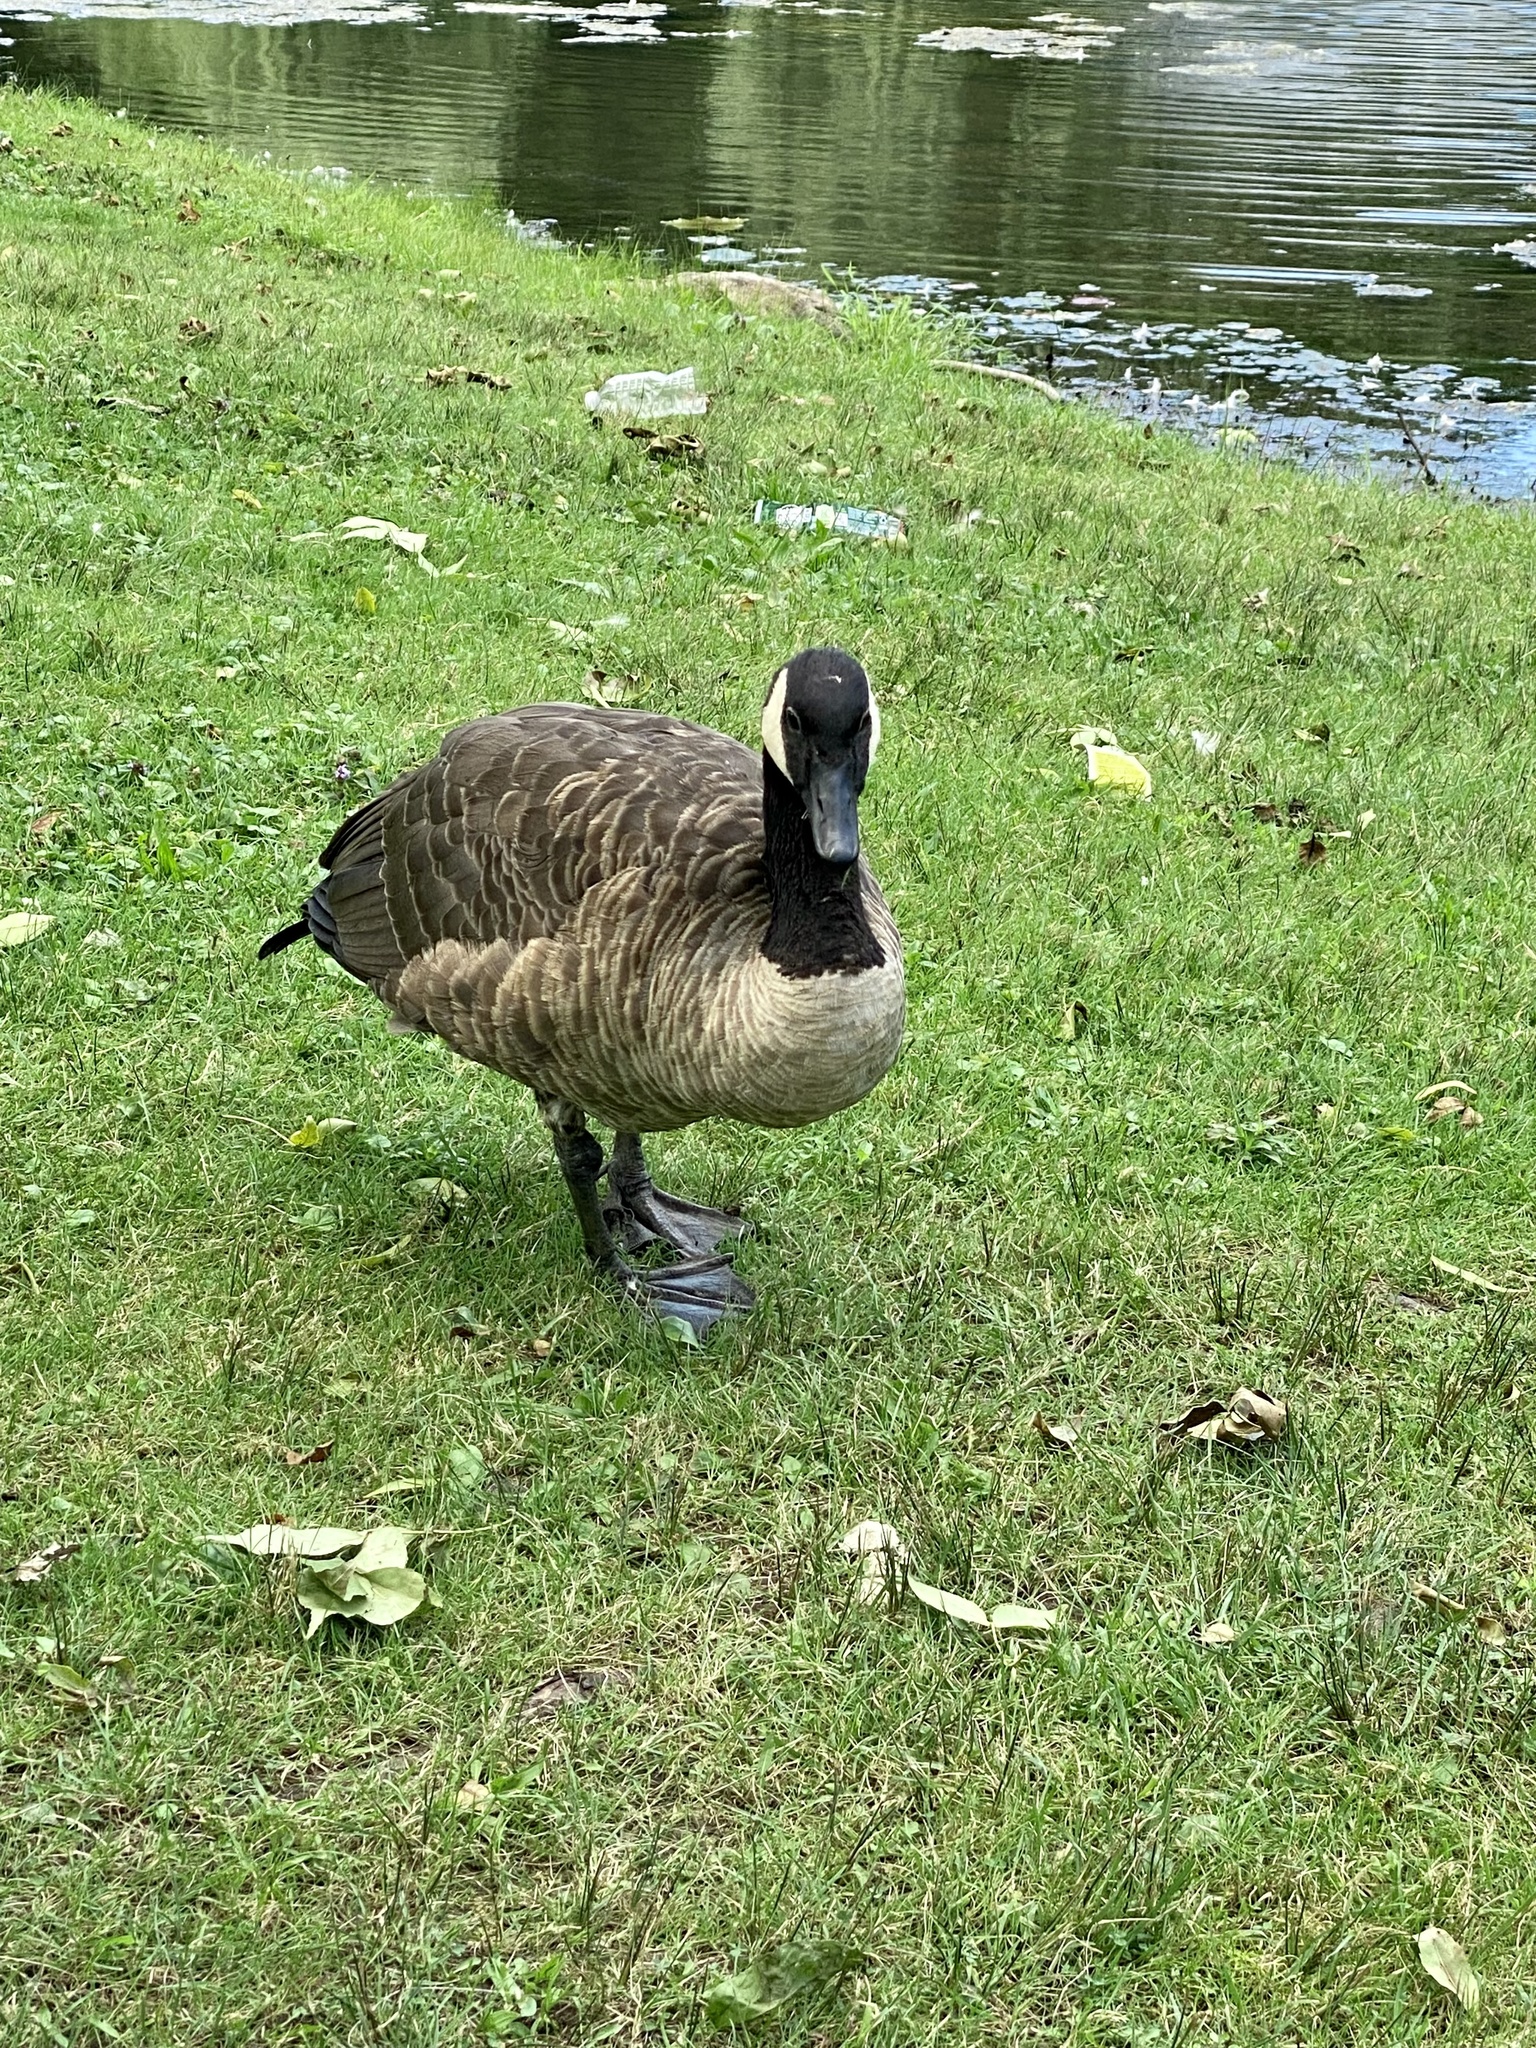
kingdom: Animalia
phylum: Chordata
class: Aves
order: Anseriformes
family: Anatidae
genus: Branta
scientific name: Branta canadensis
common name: Canada goose
